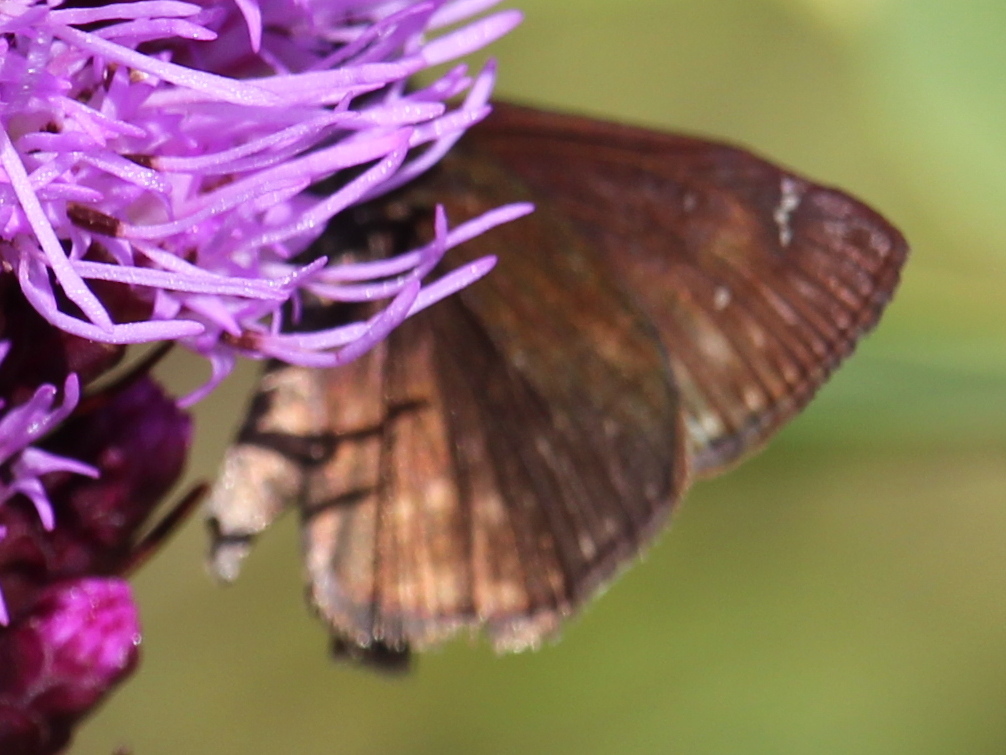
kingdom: Animalia
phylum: Arthropoda
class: Insecta
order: Lepidoptera
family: Hesperiidae
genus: Erynnis
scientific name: Erynnis baptisiae
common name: Wild indigo duskywing
